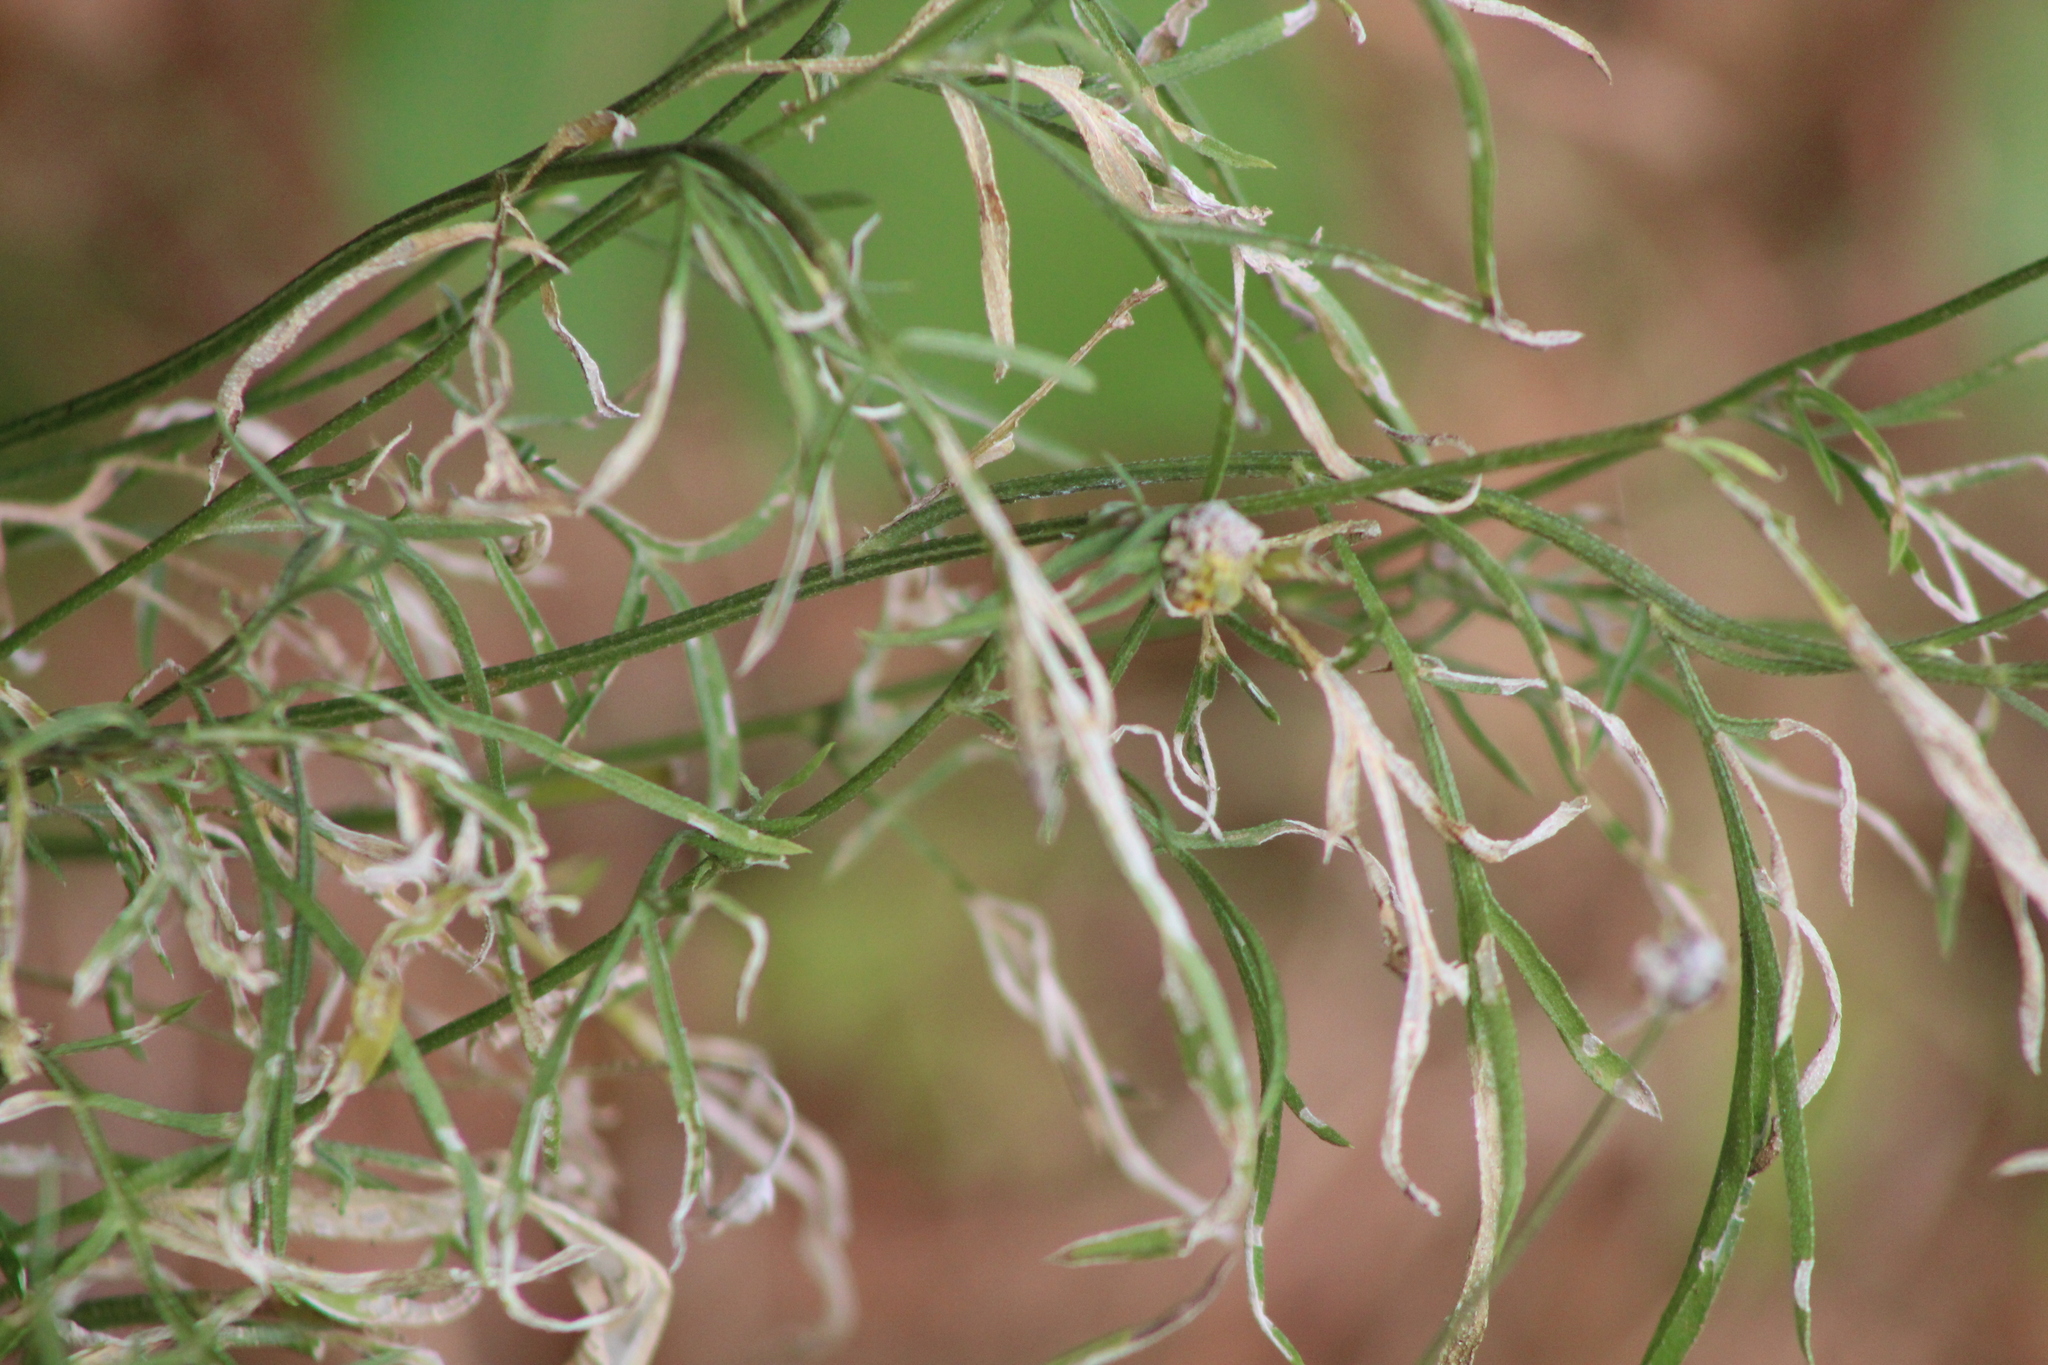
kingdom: Plantae
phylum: Tracheophyta
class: Magnoliopsida
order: Asterales
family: Asteraceae
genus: Ratibida
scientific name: Ratibida columnifera
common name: Prairie coneflower
